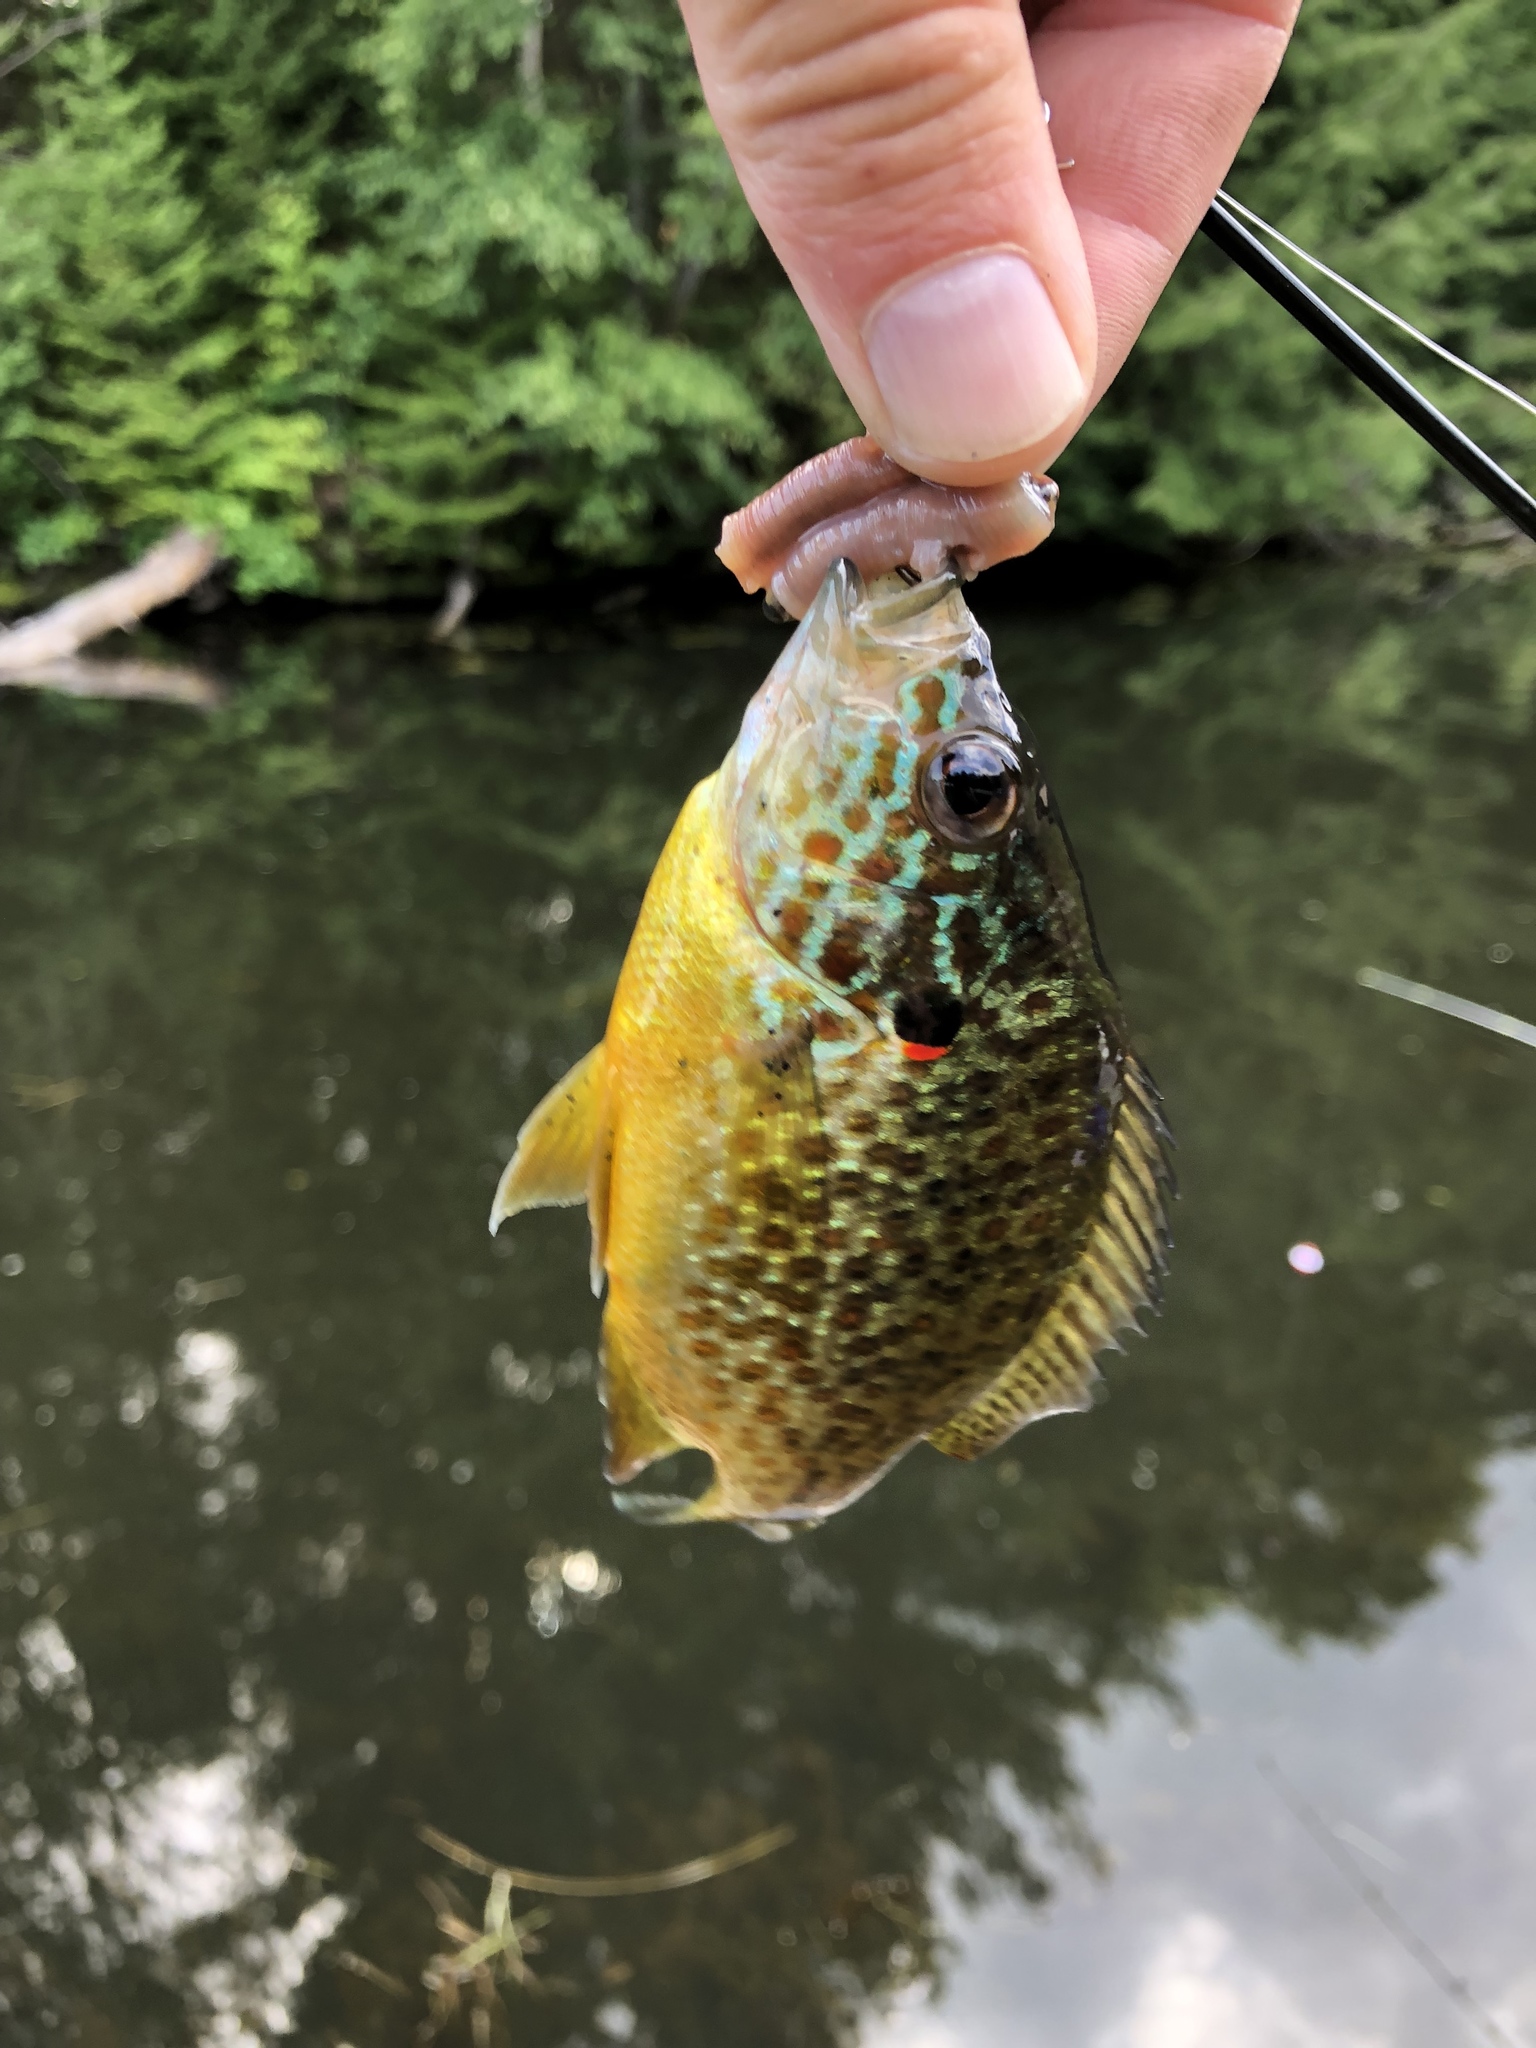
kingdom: Animalia
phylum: Chordata
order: Perciformes
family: Centrarchidae
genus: Lepomis
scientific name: Lepomis gibbosus
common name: Pumpkinseed
